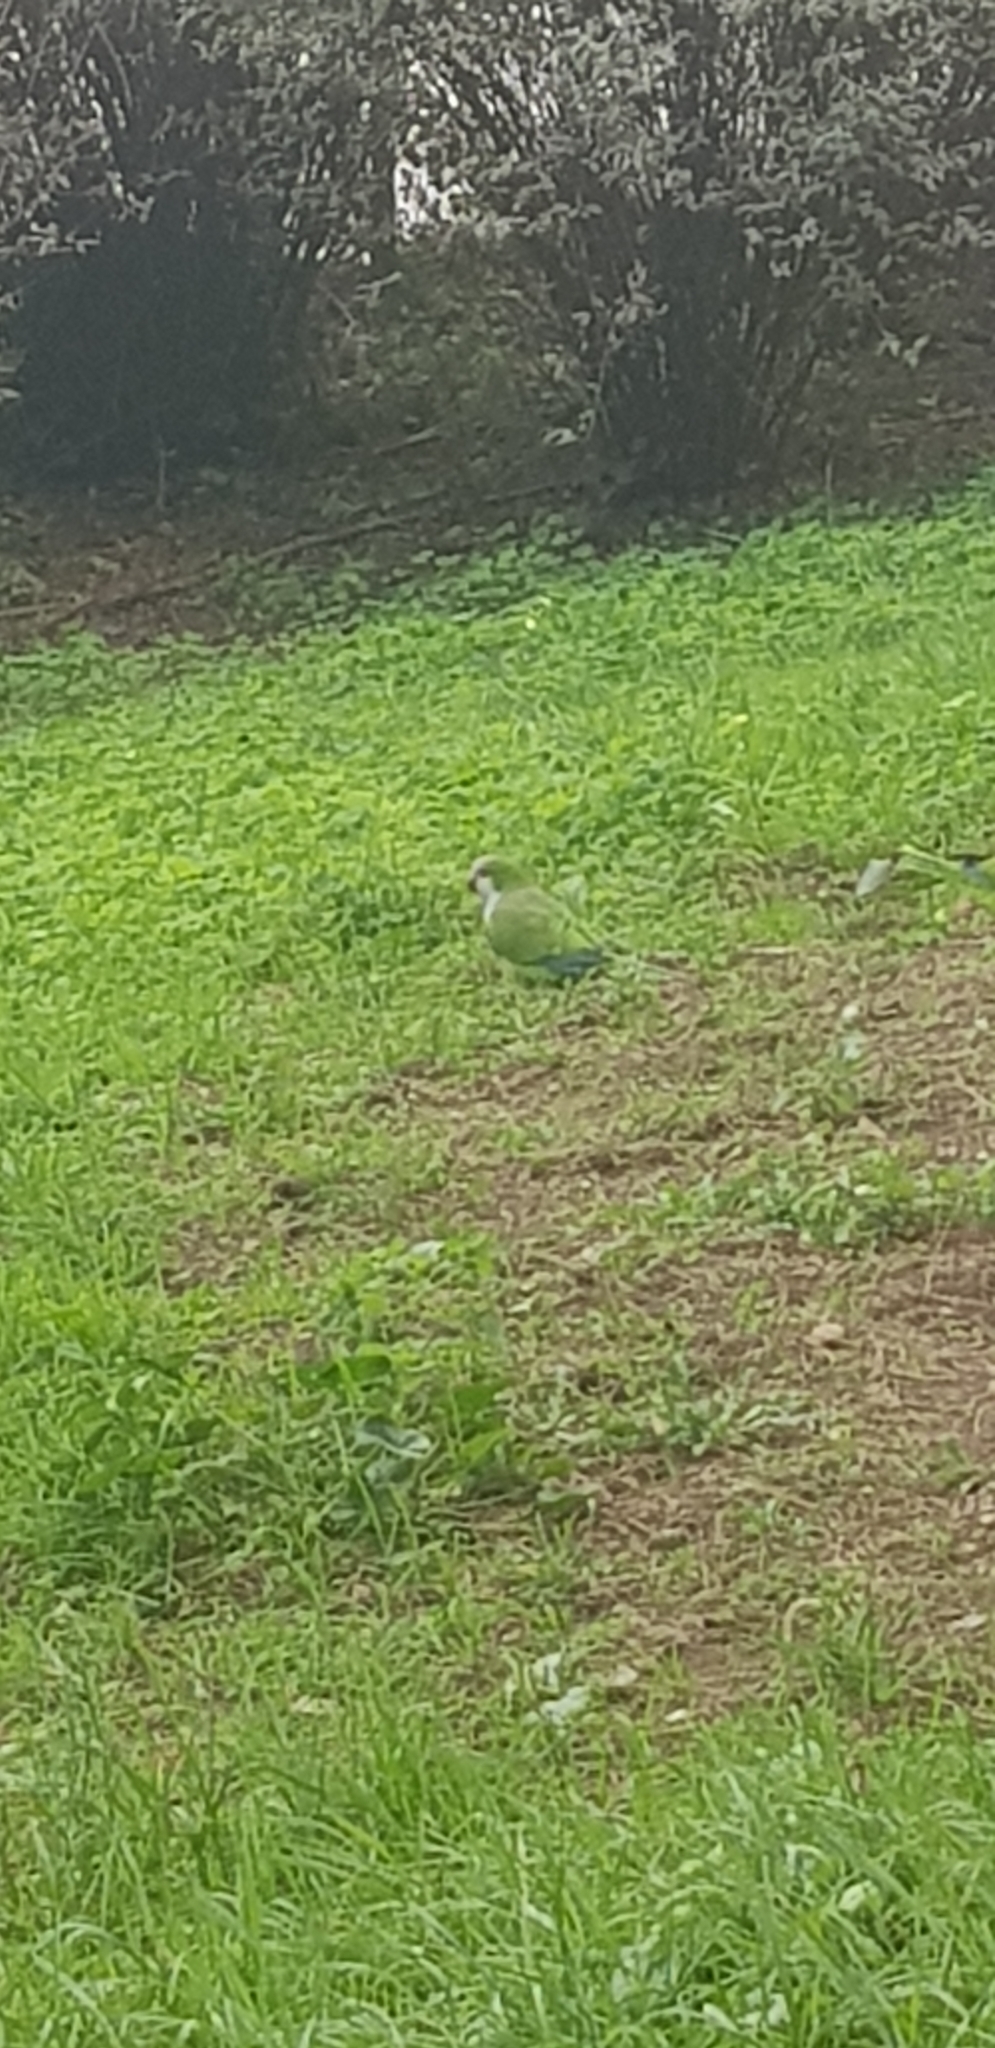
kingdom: Animalia
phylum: Chordata
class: Aves
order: Psittaciformes
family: Psittacidae
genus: Myiopsitta
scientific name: Myiopsitta monachus
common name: Monk parakeet
